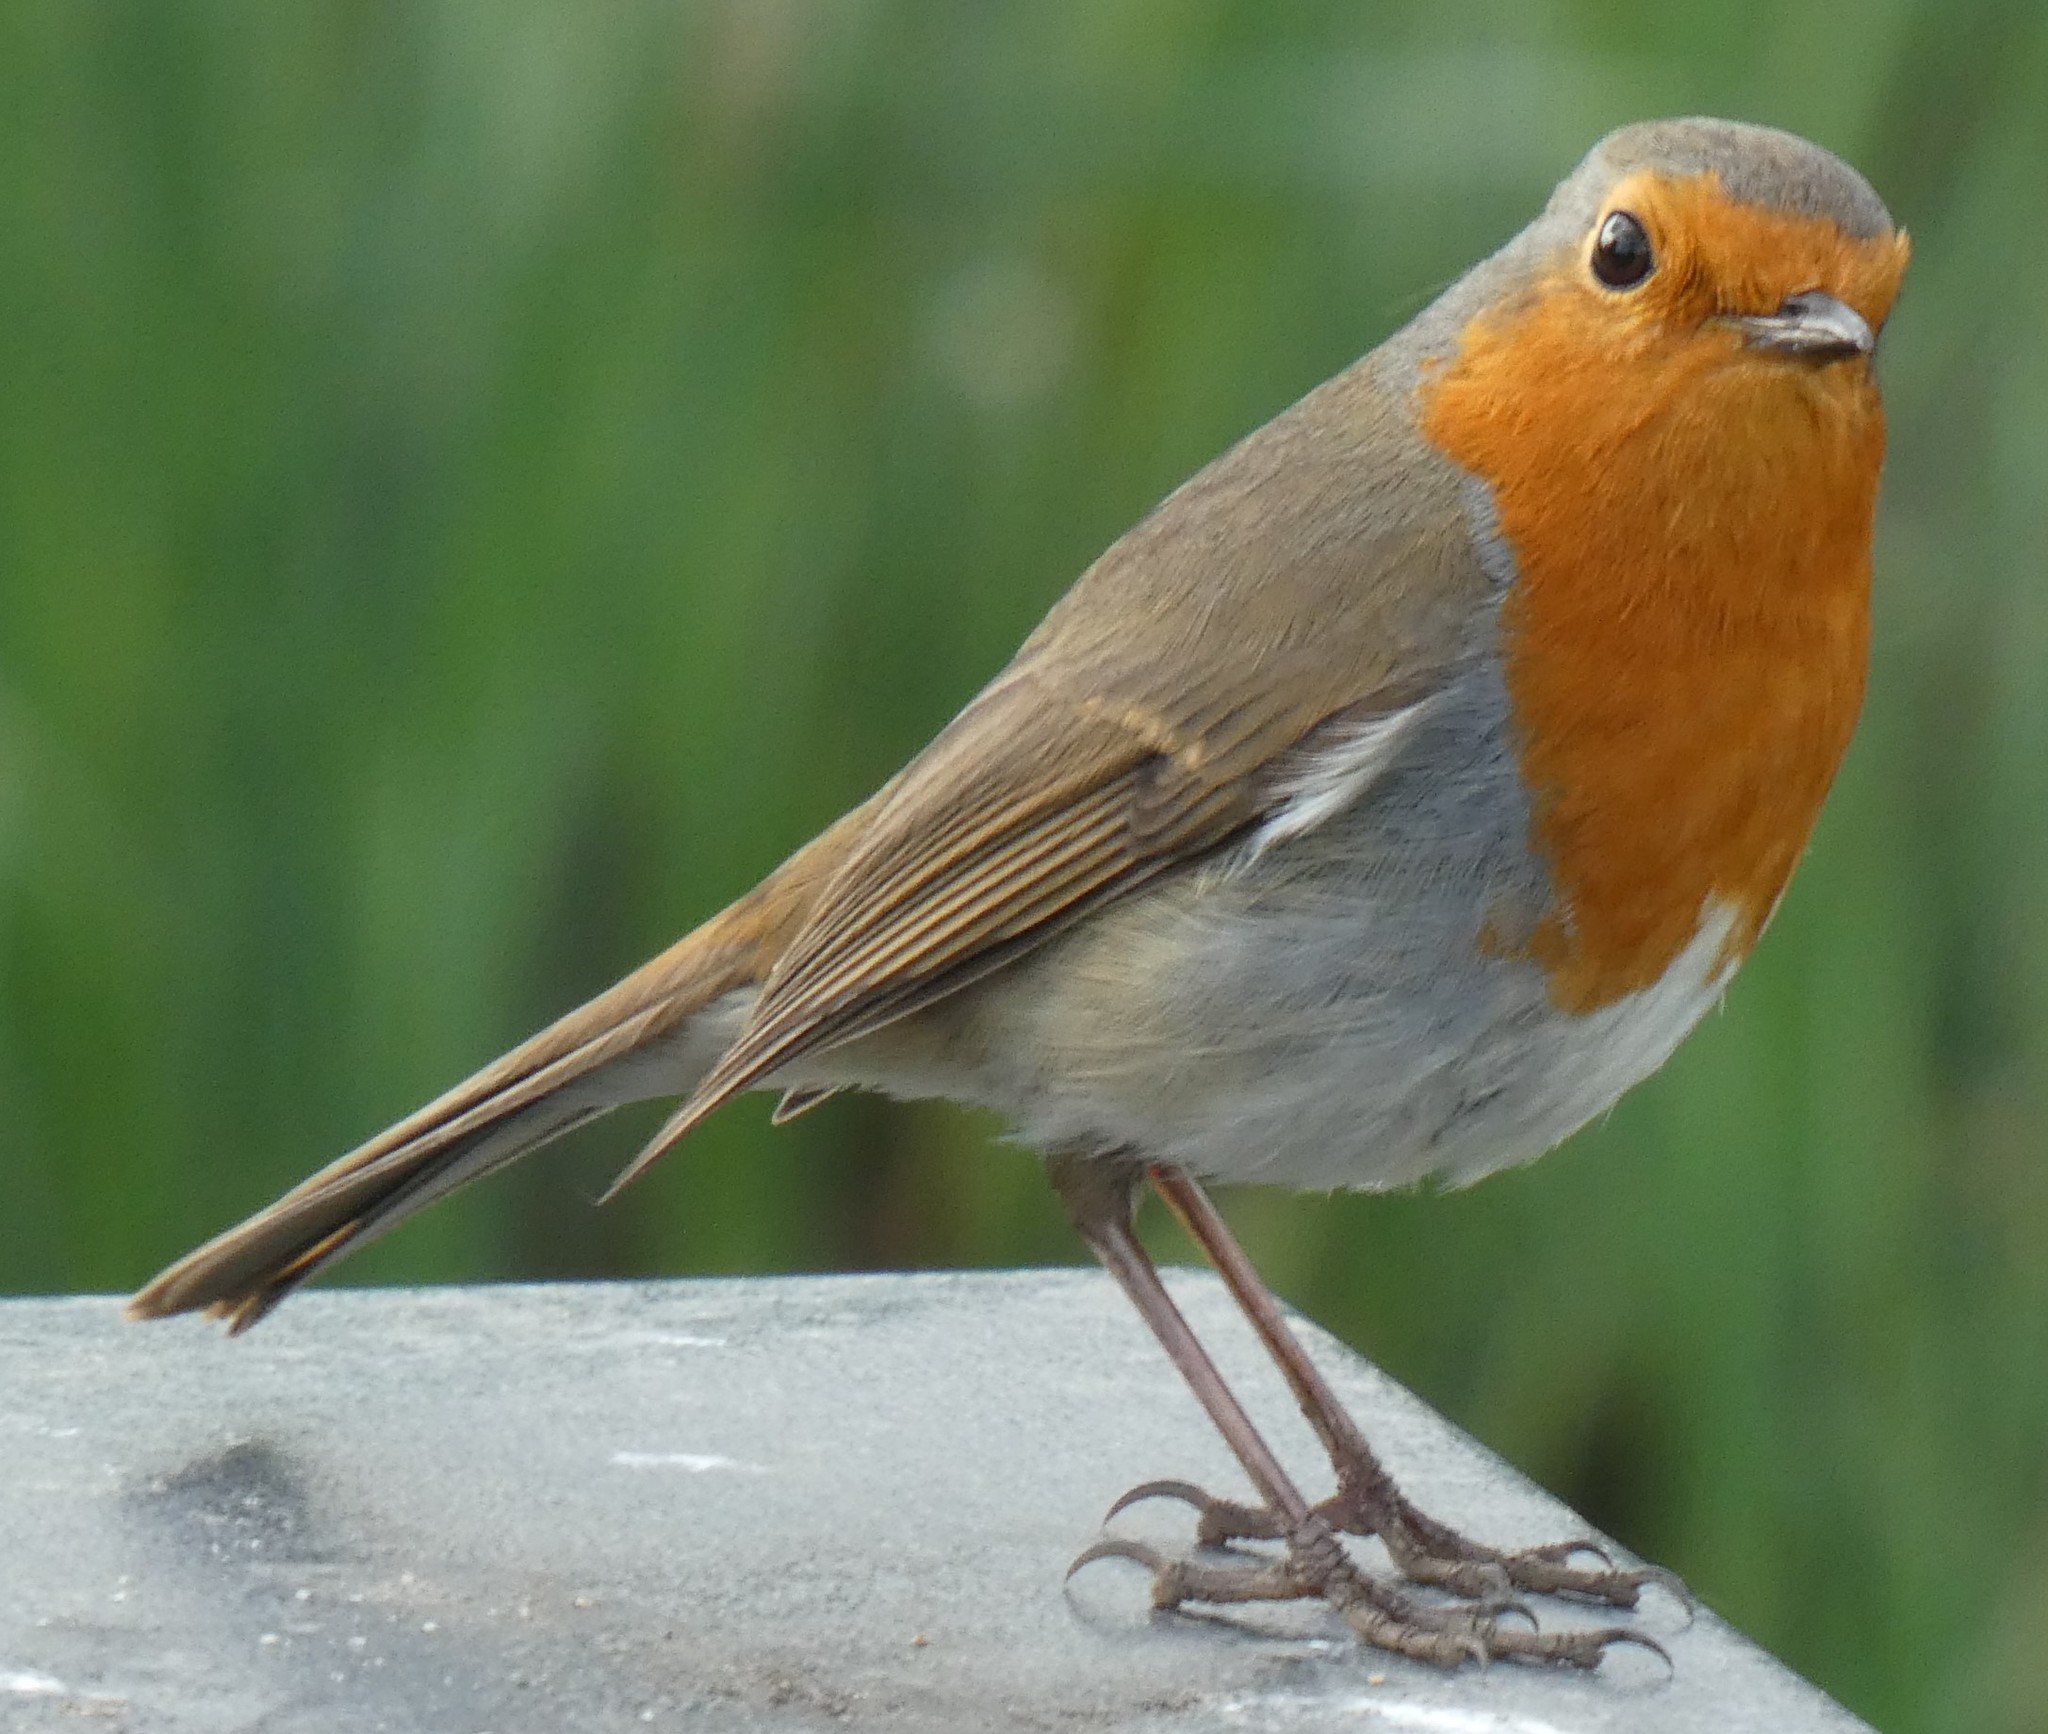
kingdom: Animalia
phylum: Chordata
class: Aves
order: Passeriformes
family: Muscicapidae
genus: Erithacus
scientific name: Erithacus rubecula
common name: European robin
